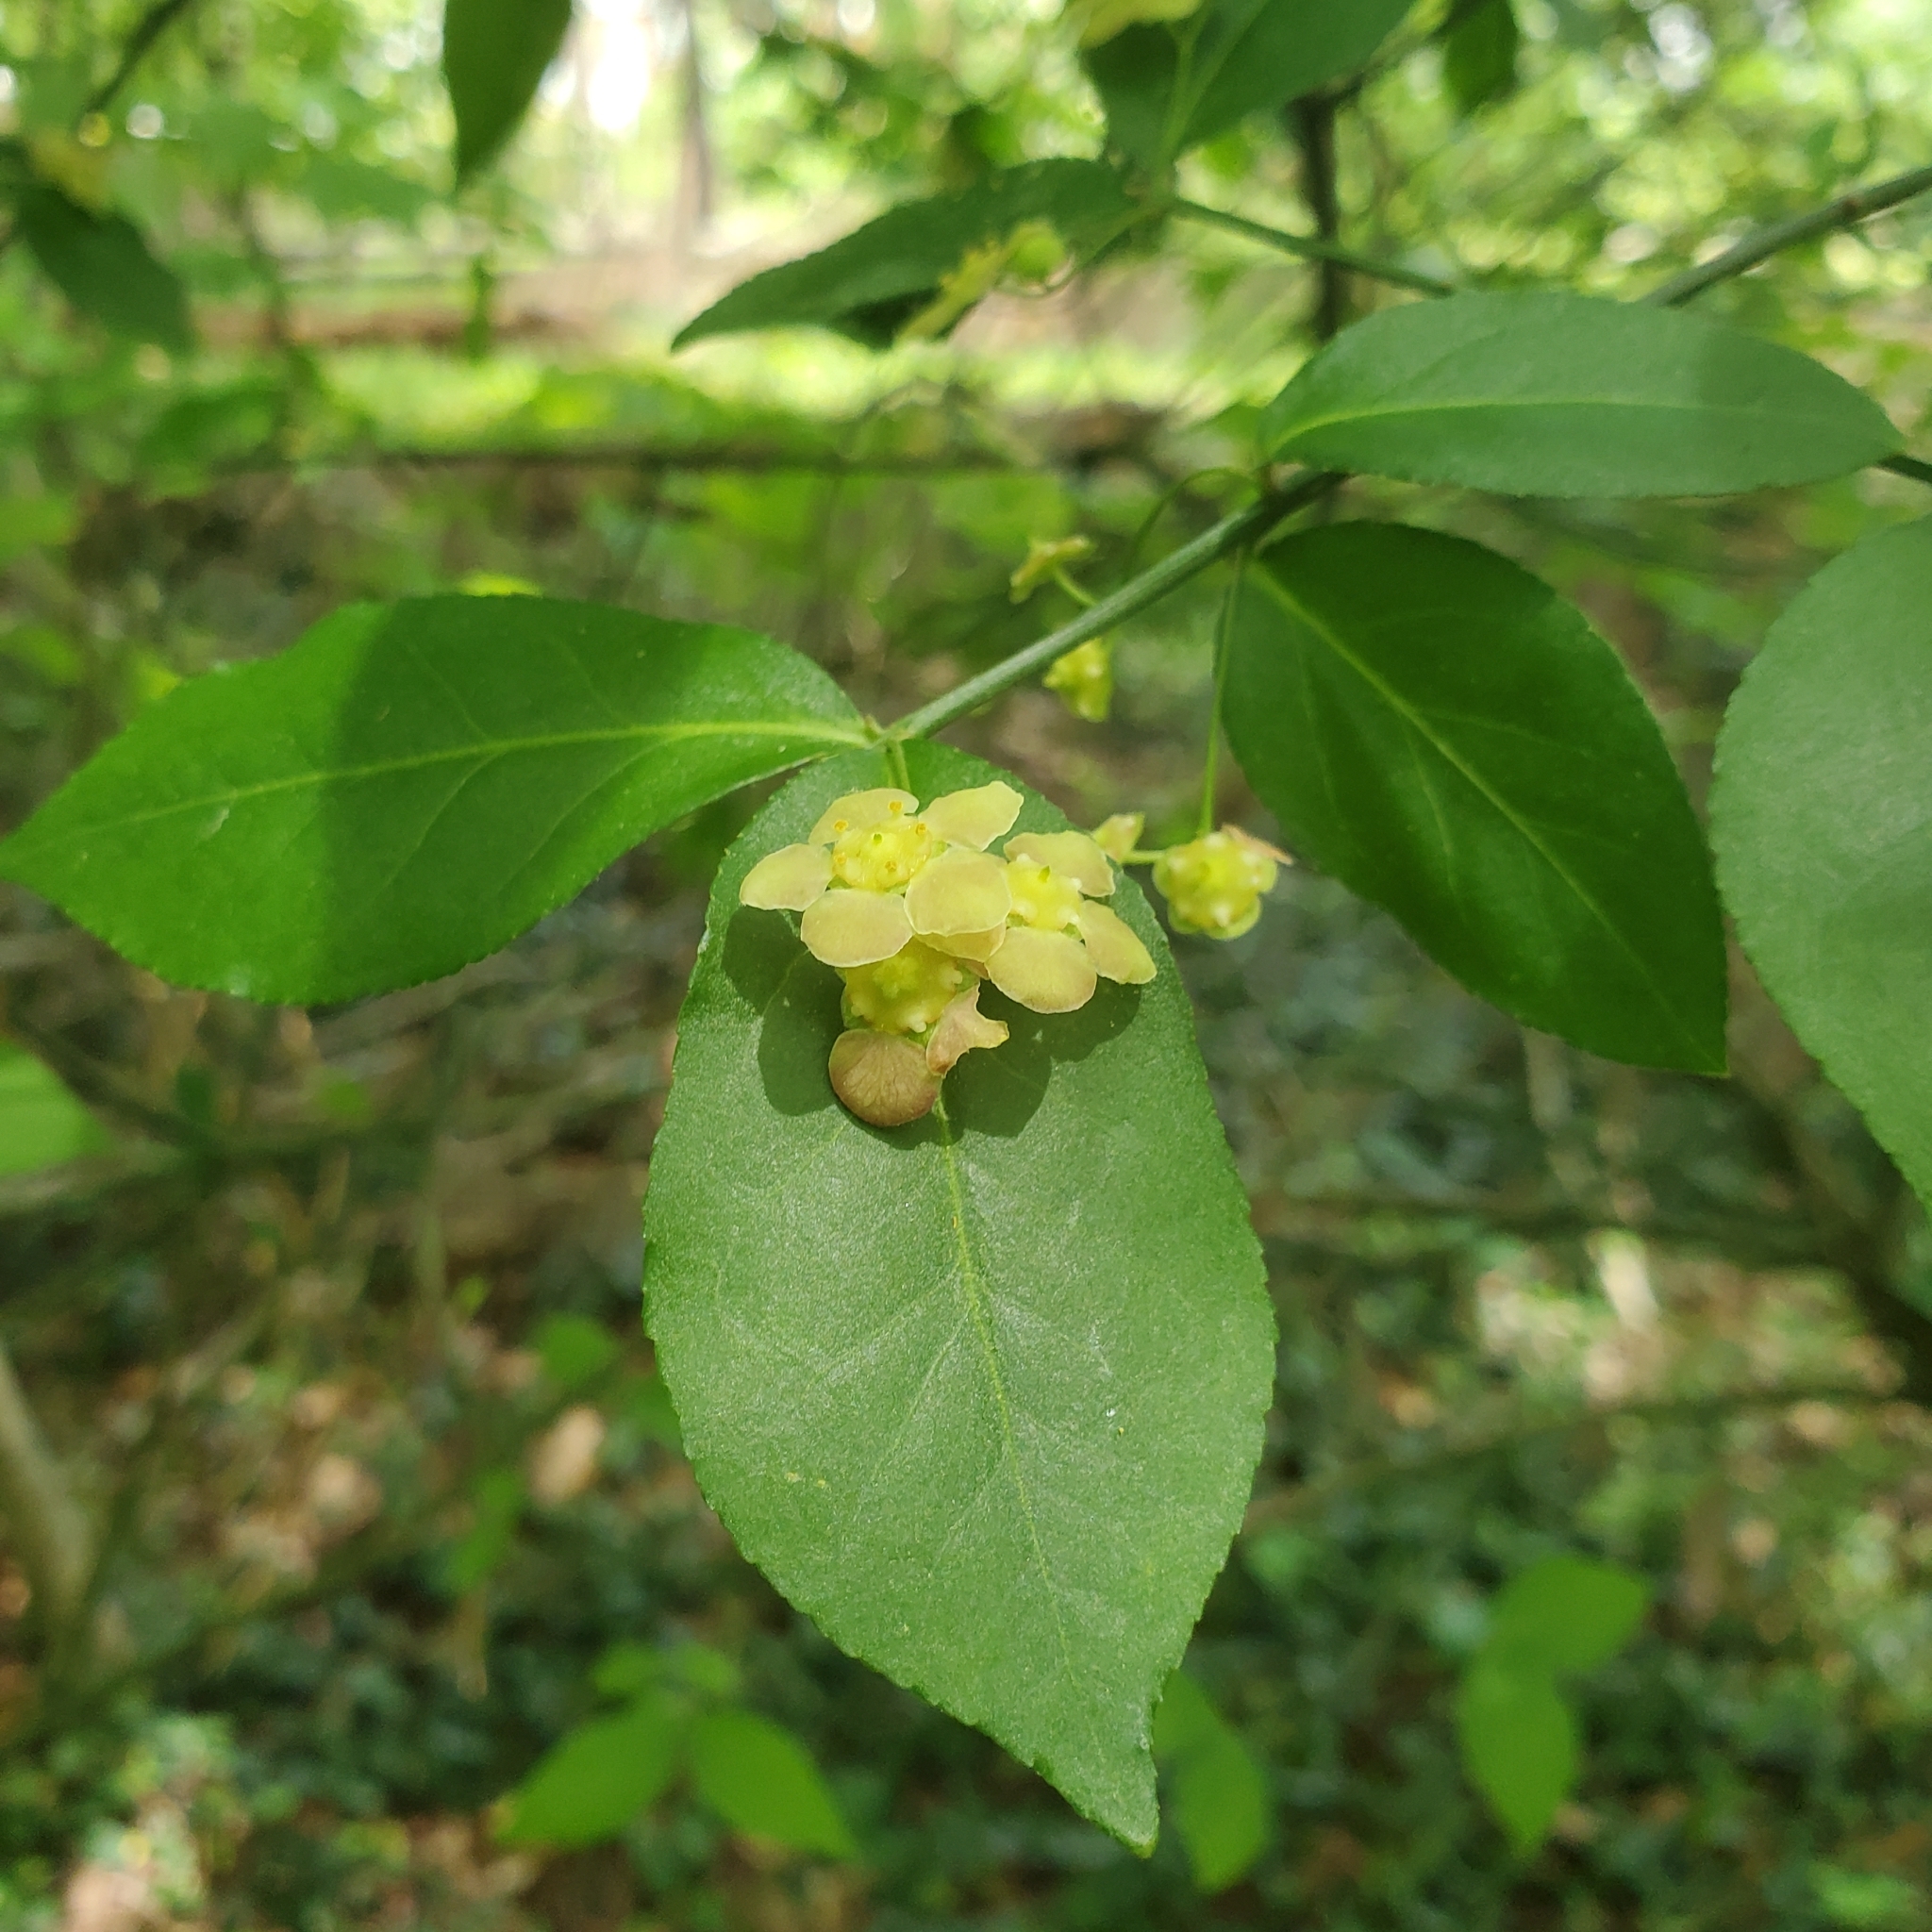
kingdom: Plantae
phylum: Tracheophyta
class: Magnoliopsida
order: Celastrales
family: Celastraceae
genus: Euonymus
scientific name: Euonymus americanus
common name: Bursting-heart
